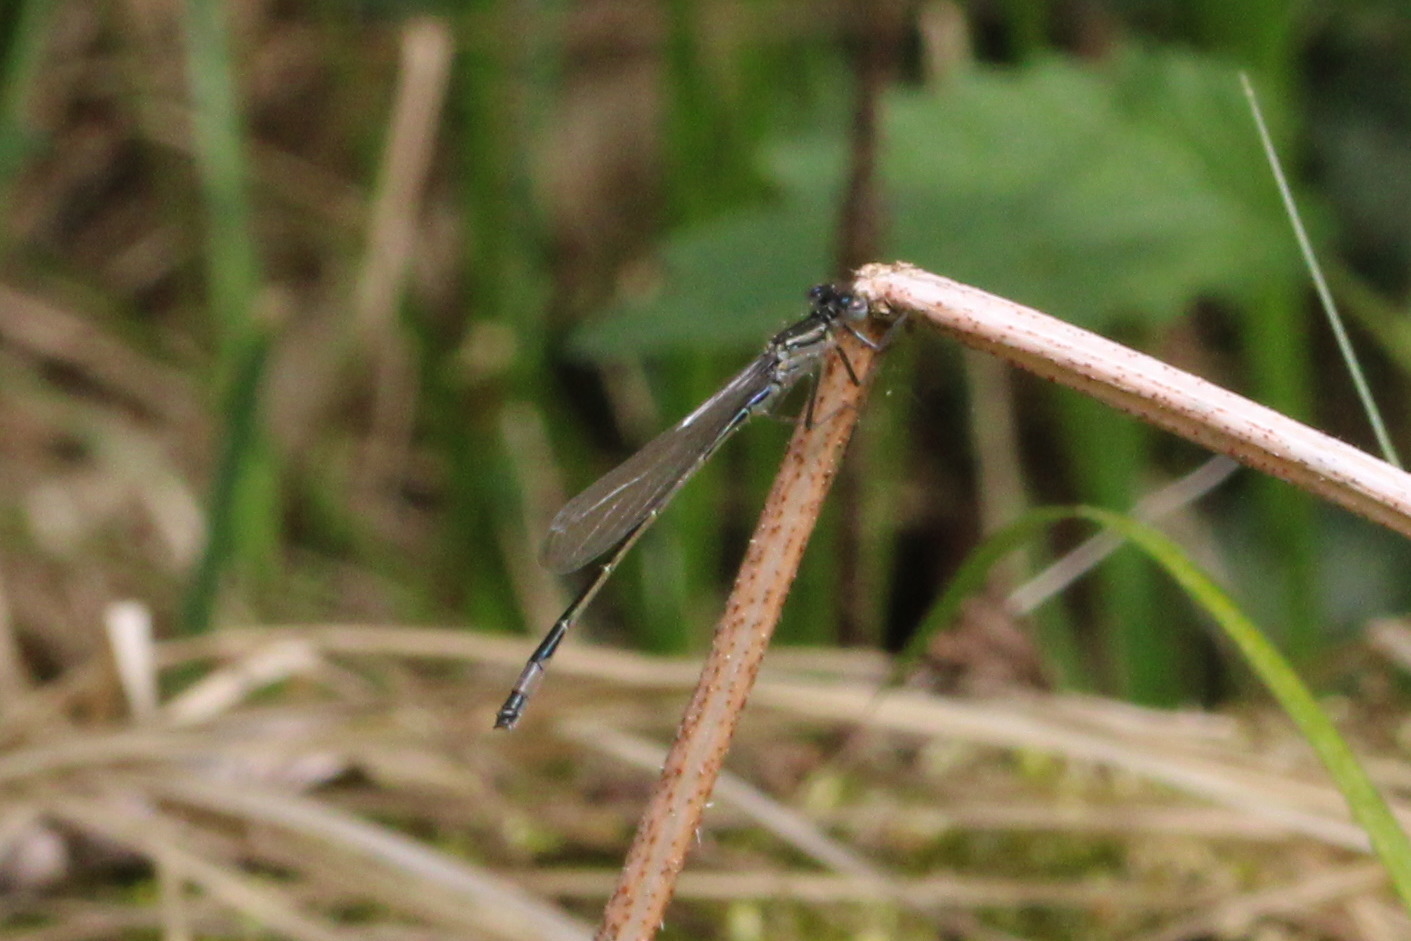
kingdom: Animalia
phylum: Arthropoda
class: Insecta
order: Odonata
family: Coenagrionidae
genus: Ischnura
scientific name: Ischnura elegans
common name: Blue-tailed damselfly
